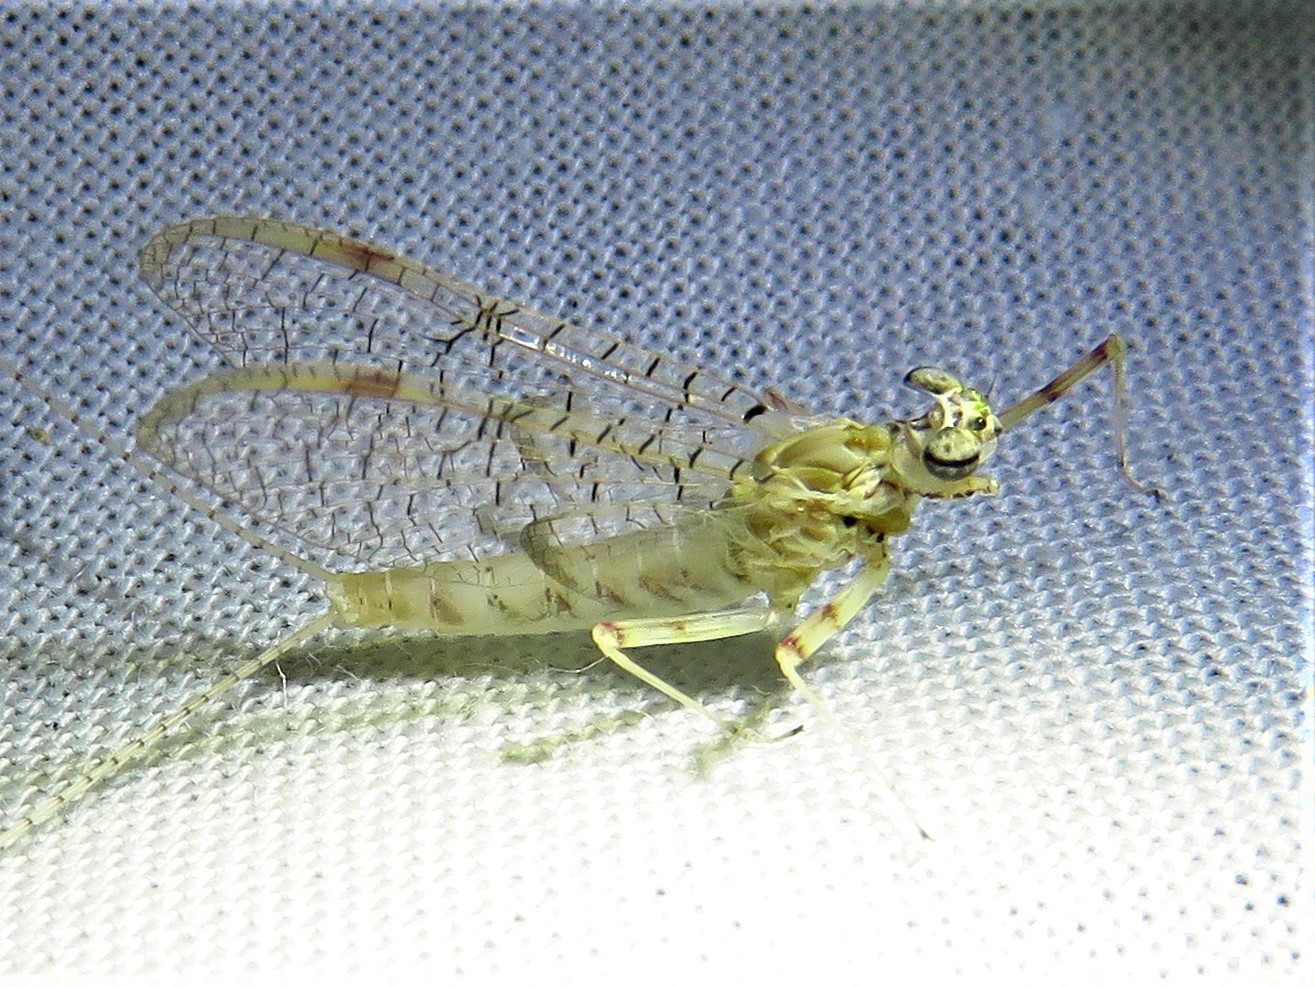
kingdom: Animalia
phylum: Arthropoda
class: Insecta
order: Ephemeroptera
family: Heptageniidae
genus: Stenonema
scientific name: Stenonema femoratum
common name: Dark cahill
